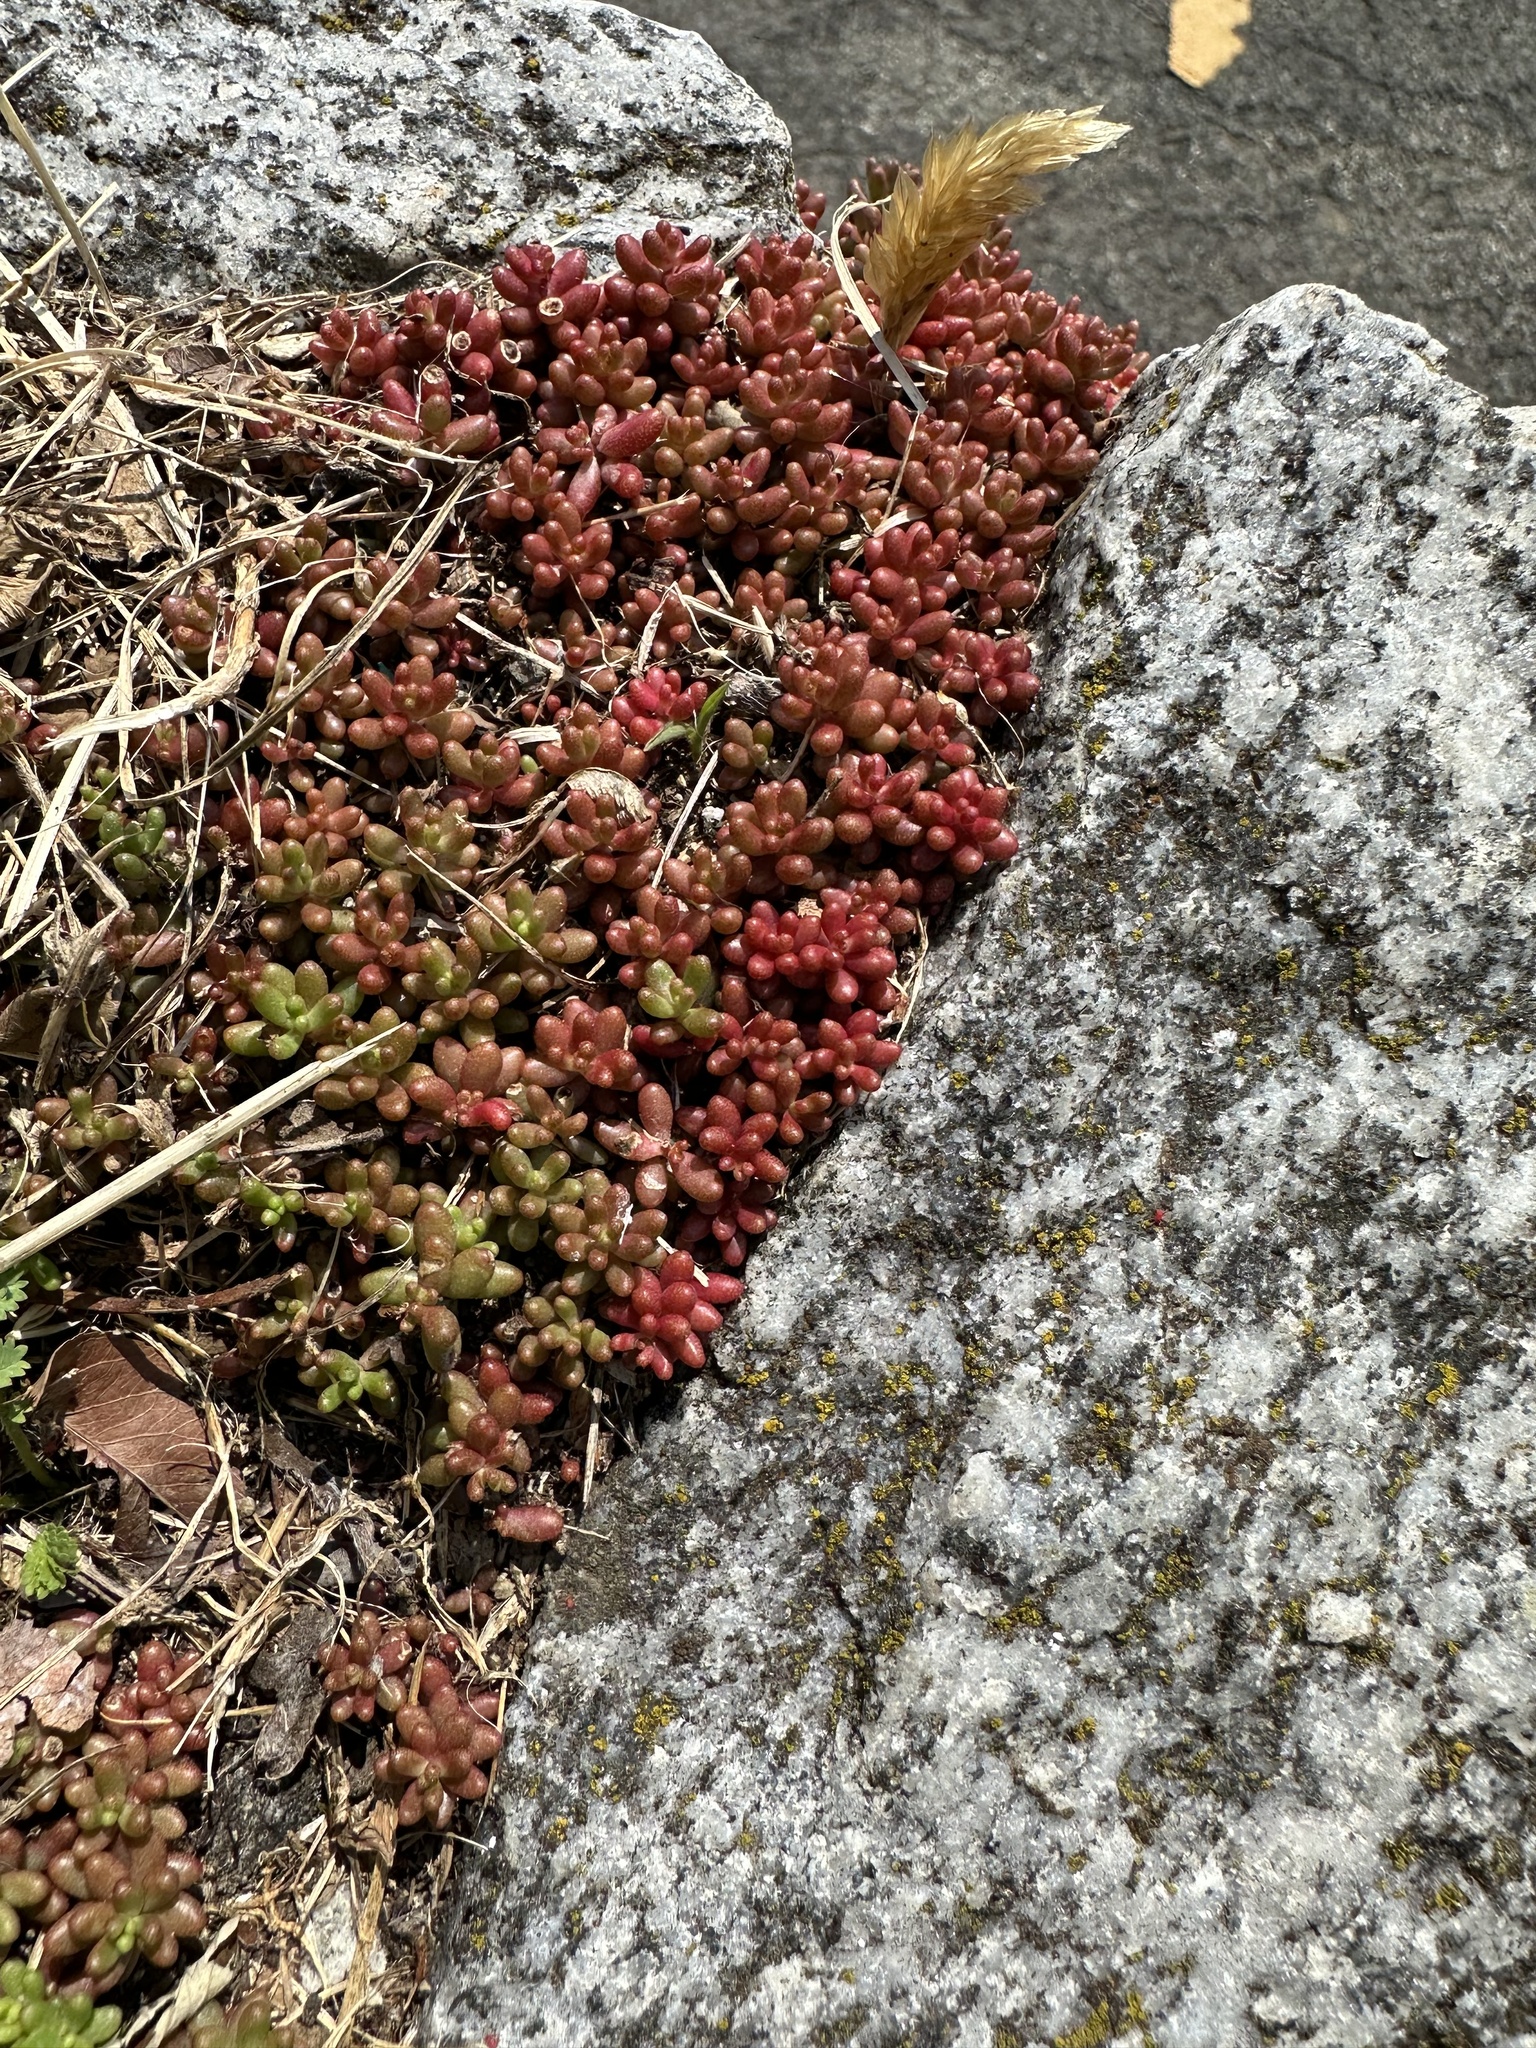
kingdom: Plantae
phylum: Tracheophyta
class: Magnoliopsida
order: Saxifragales
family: Crassulaceae
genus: Sedum
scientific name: Sedum album
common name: White stonecrop
